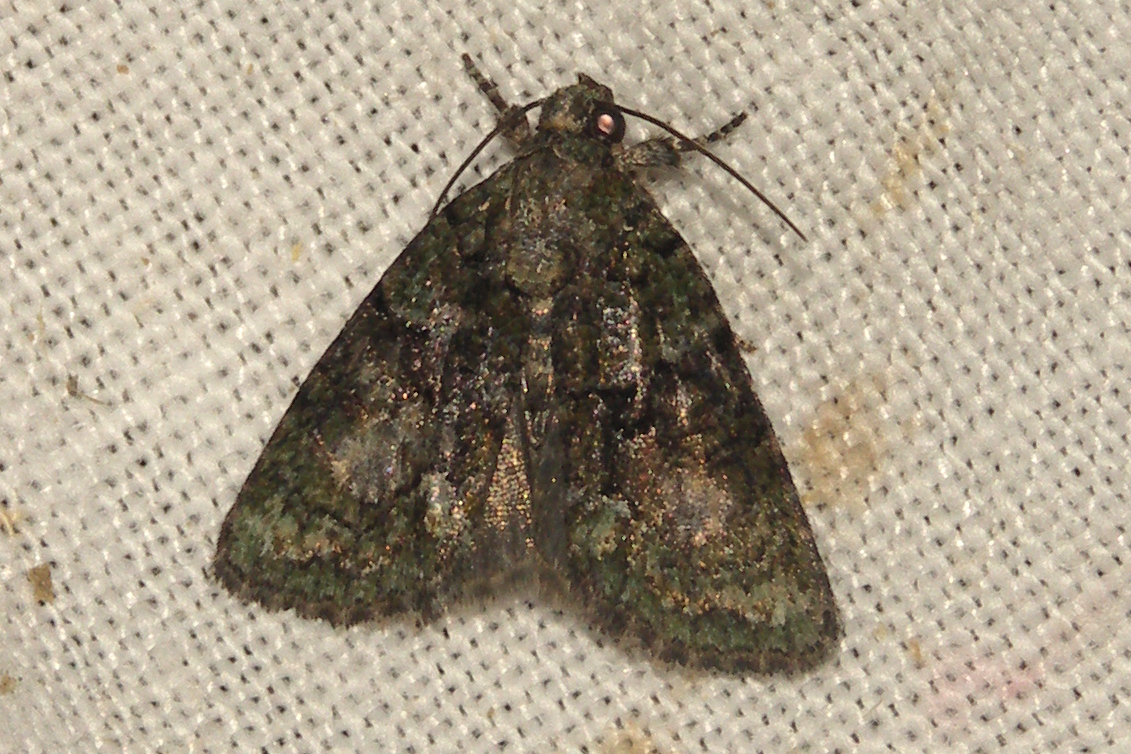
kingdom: Animalia
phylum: Arthropoda
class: Insecta
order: Lepidoptera
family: Noctuidae
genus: Cryphia
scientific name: Cryphia algae
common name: Tree-lichen beauty
